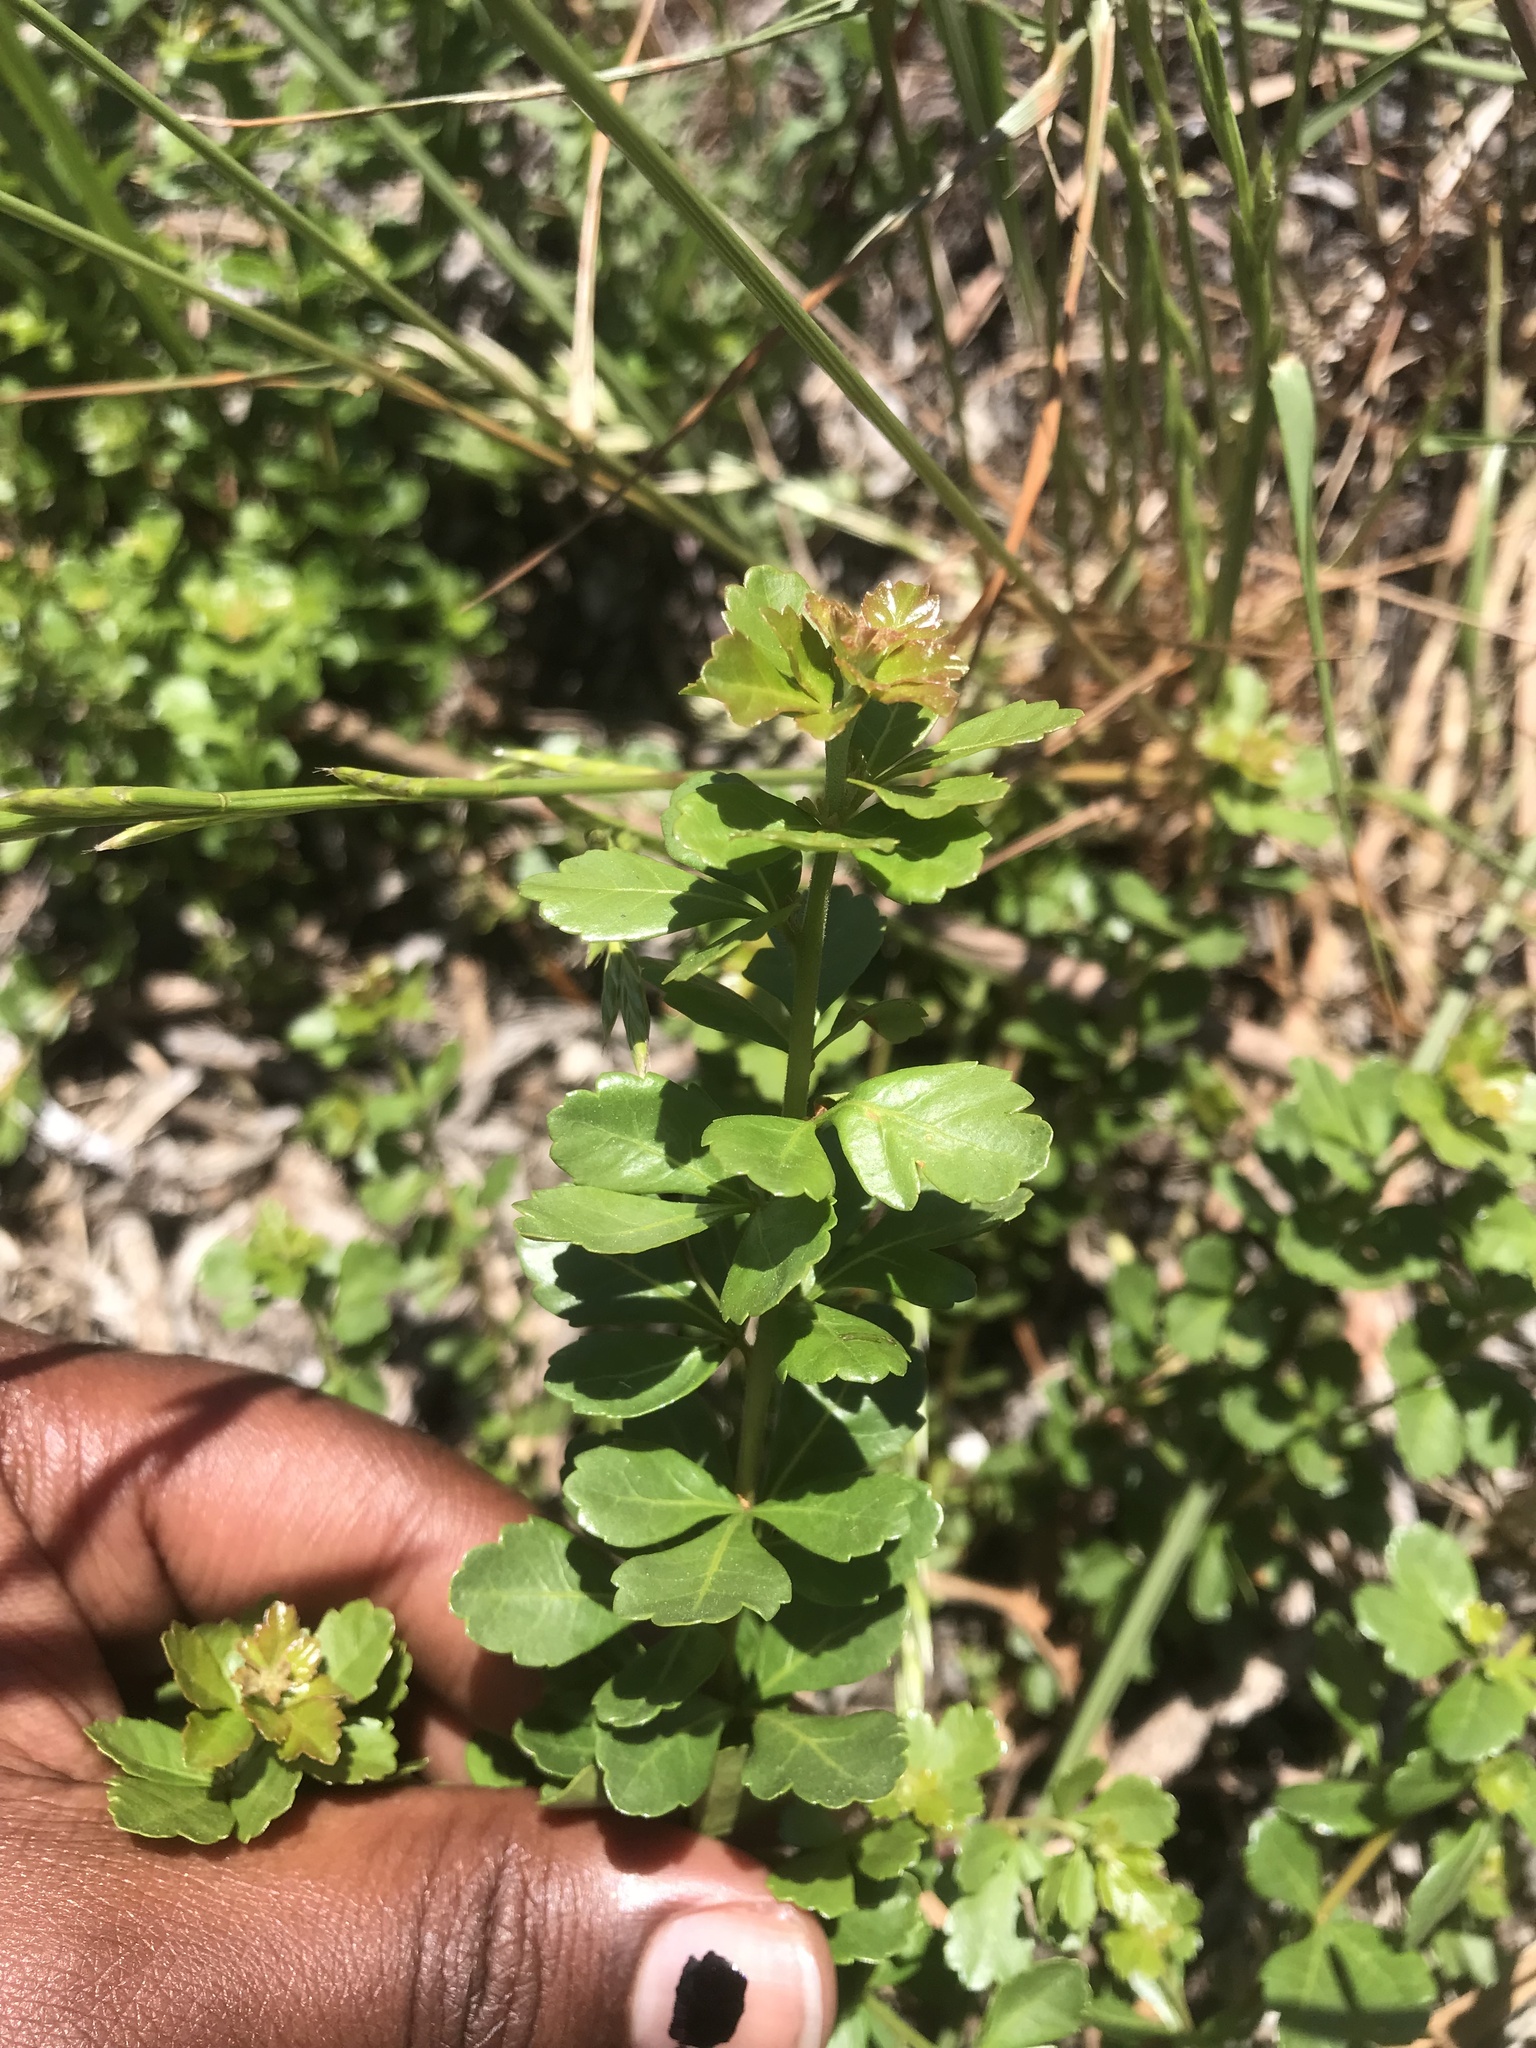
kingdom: Plantae
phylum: Tracheophyta
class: Magnoliopsida
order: Sapindales
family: Anacardiaceae
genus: Searsia
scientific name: Searsia crenata
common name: Crowberry
